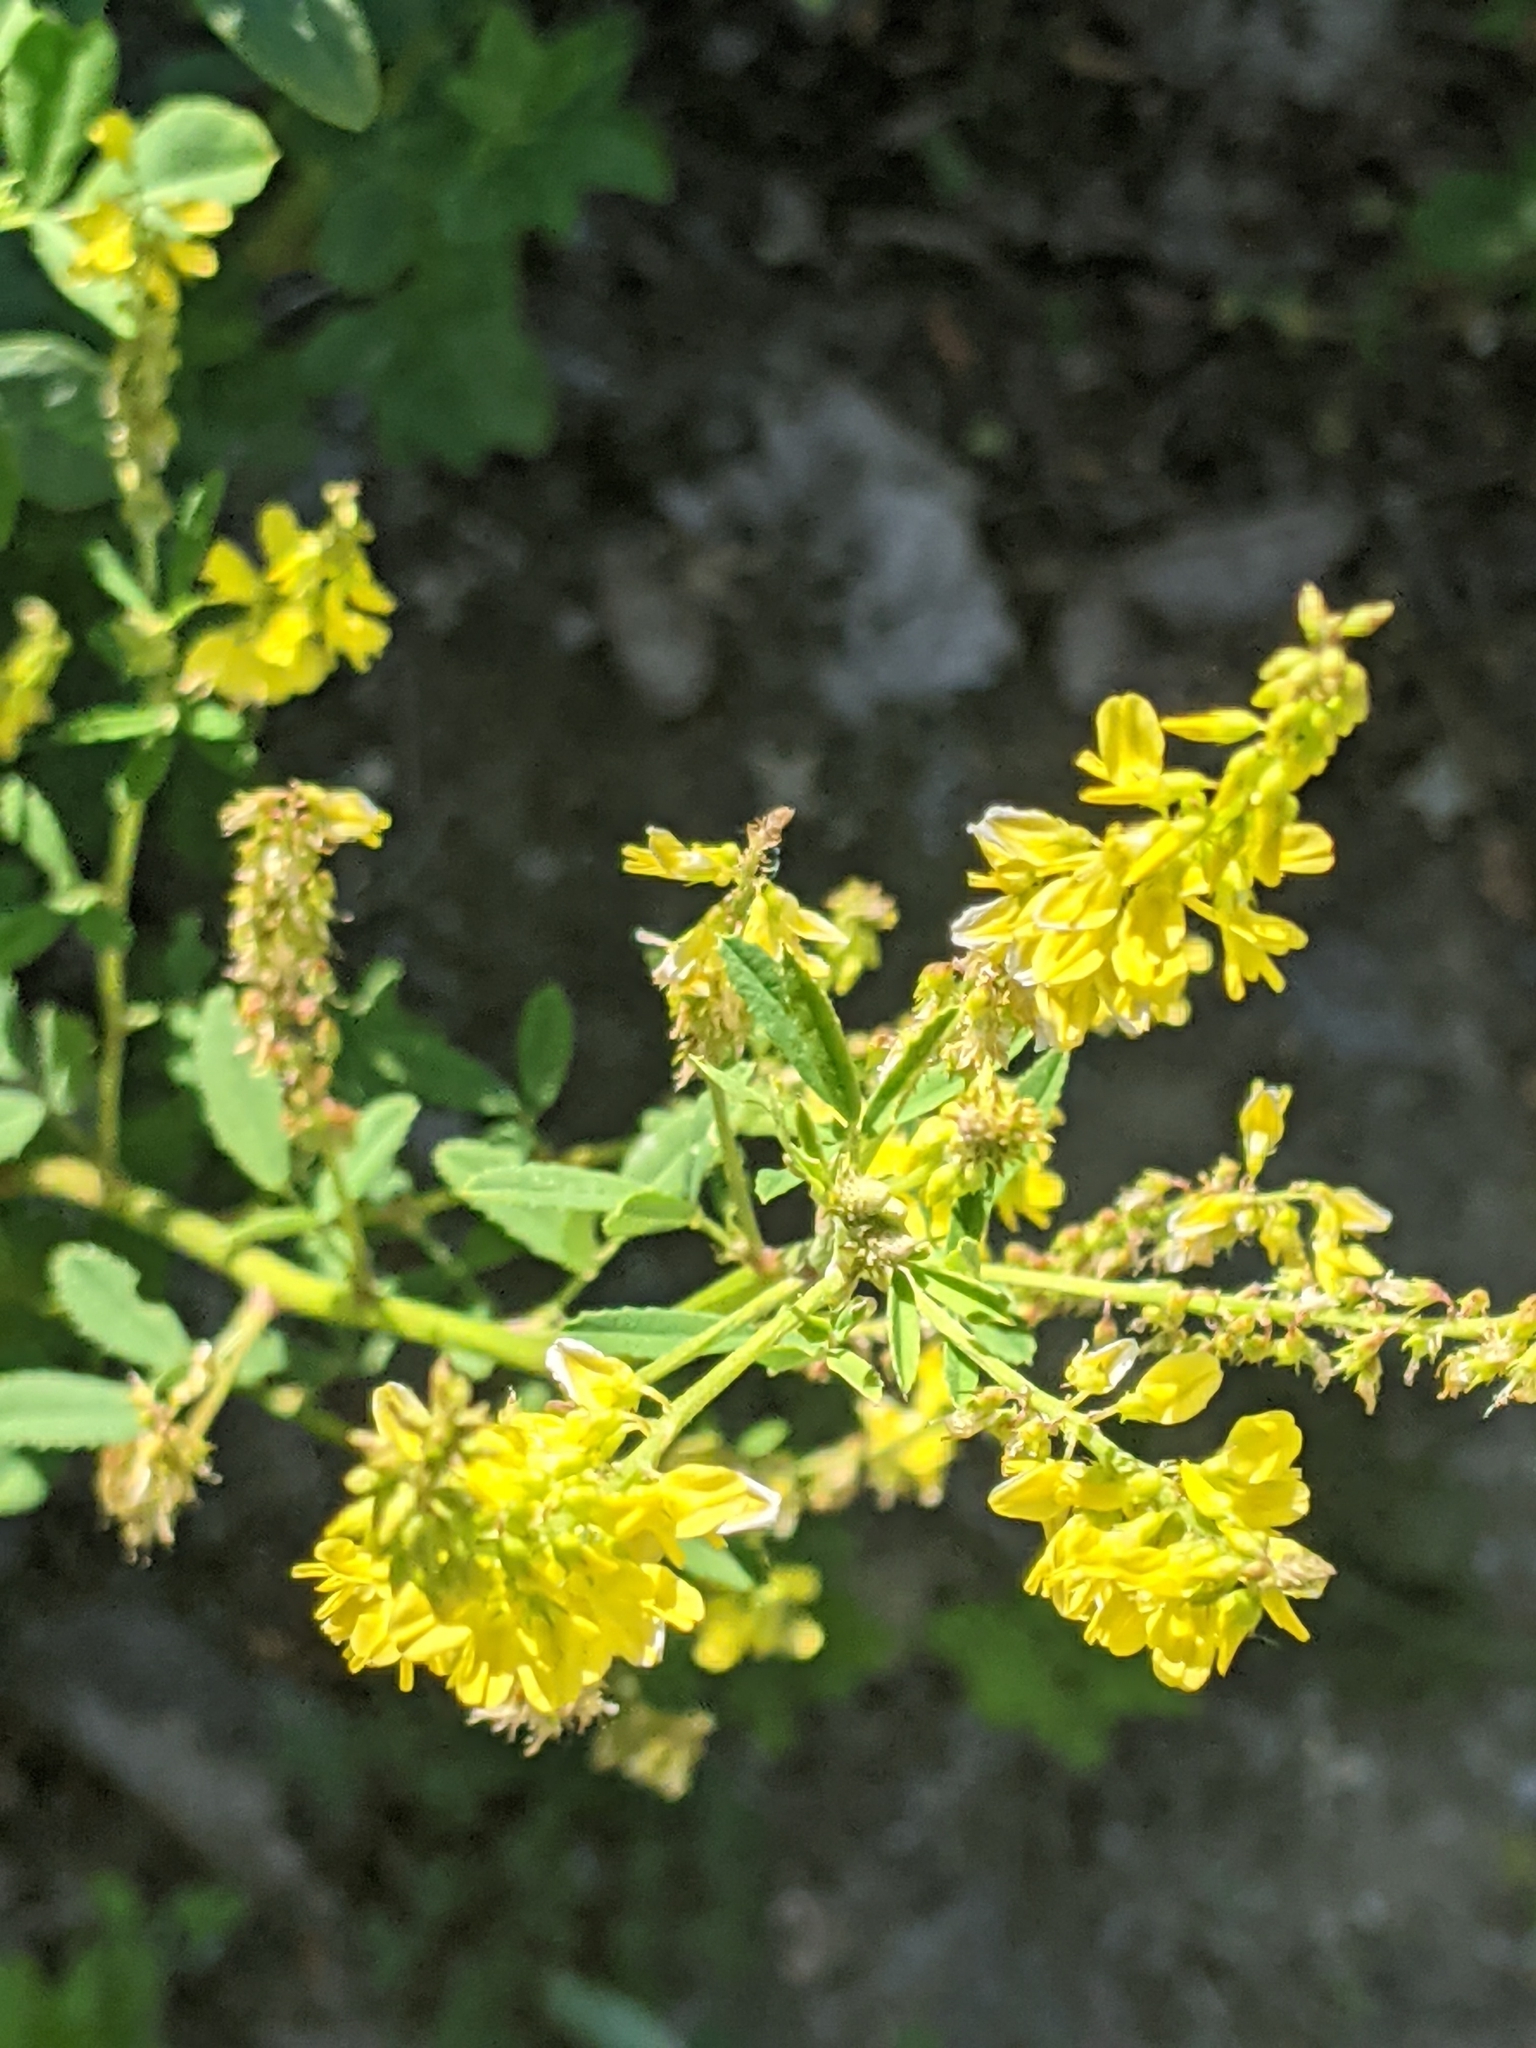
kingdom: Plantae
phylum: Tracheophyta
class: Magnoliopsida
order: Fabales
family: Fabaceae
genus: Melilotus
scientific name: Melilotus officinalis
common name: Sweetclover
